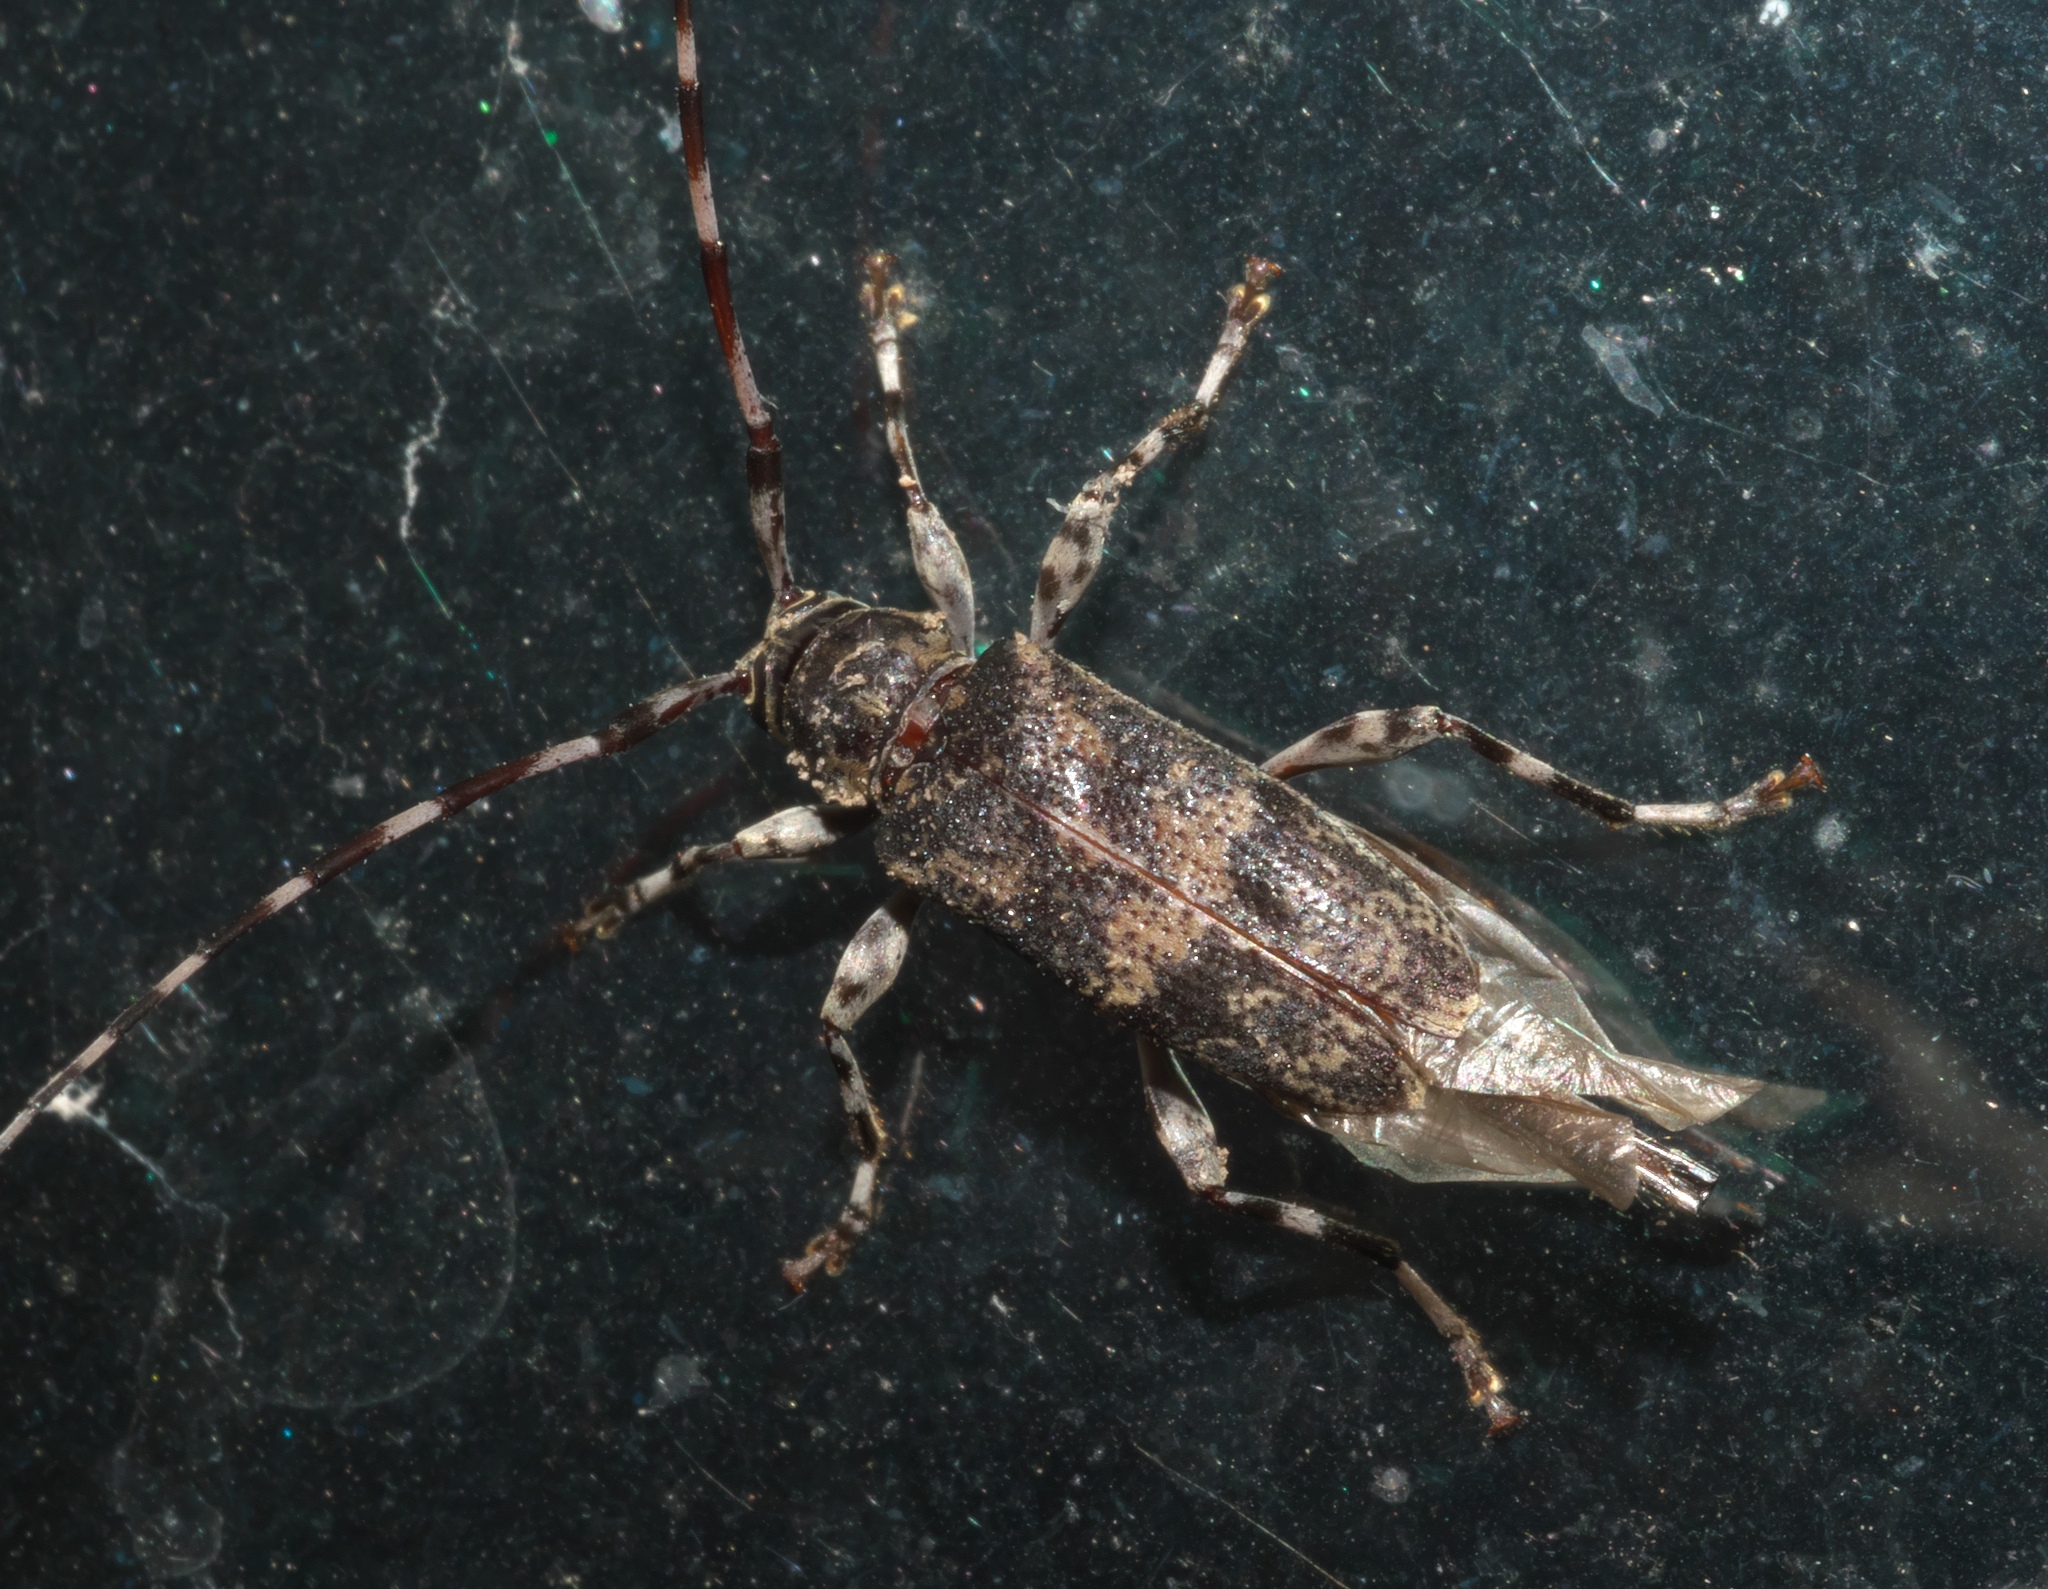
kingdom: Animalia
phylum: Arthropoda
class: Insecta
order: Coleoptera
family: Cerambycidae
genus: Graphisurus
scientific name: Graphisurus fasciatus
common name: Banded graphisurus
